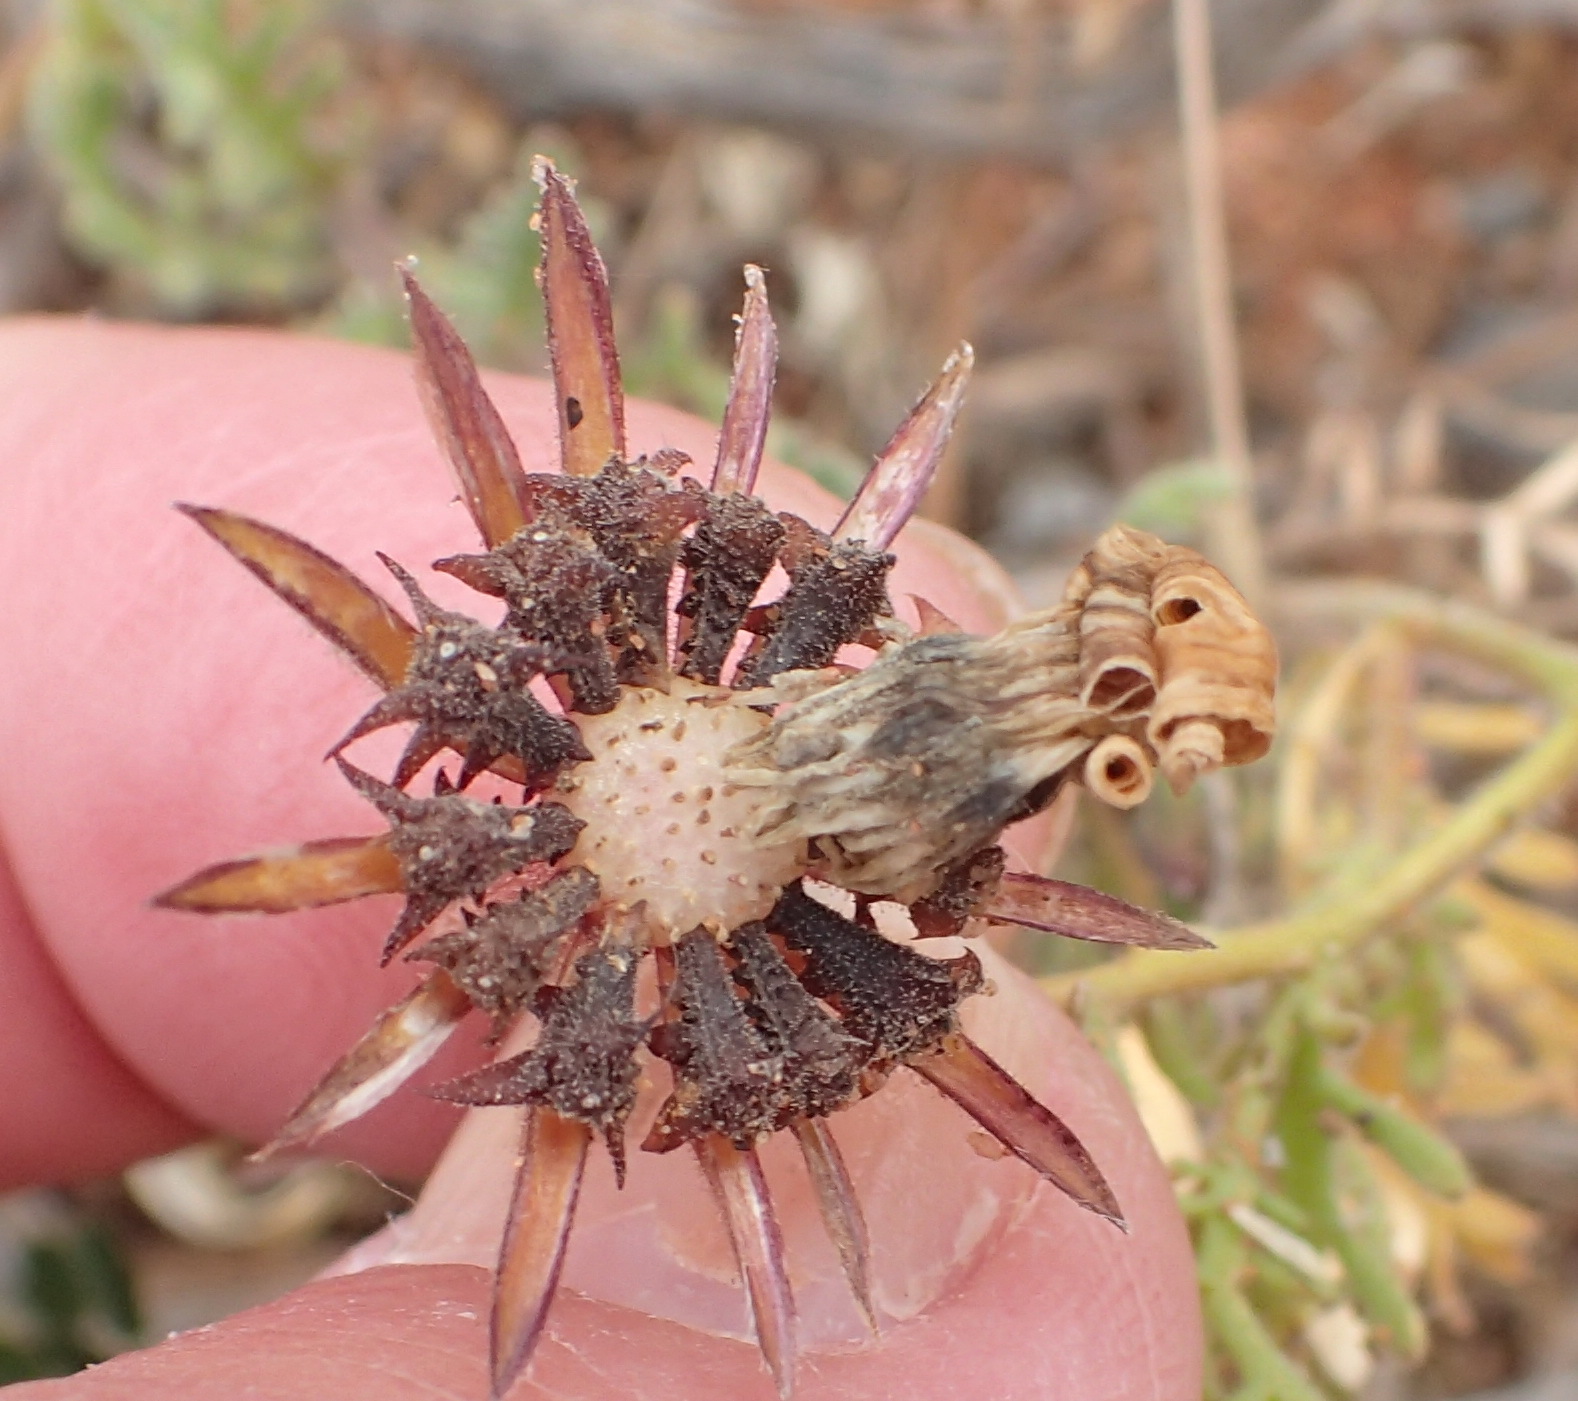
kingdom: Plantae
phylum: Tracheophyta
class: Magnoliopsida
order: Asterales
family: Asteraceae
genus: Dimorphotheca
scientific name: Dimorphotheca pinnata
